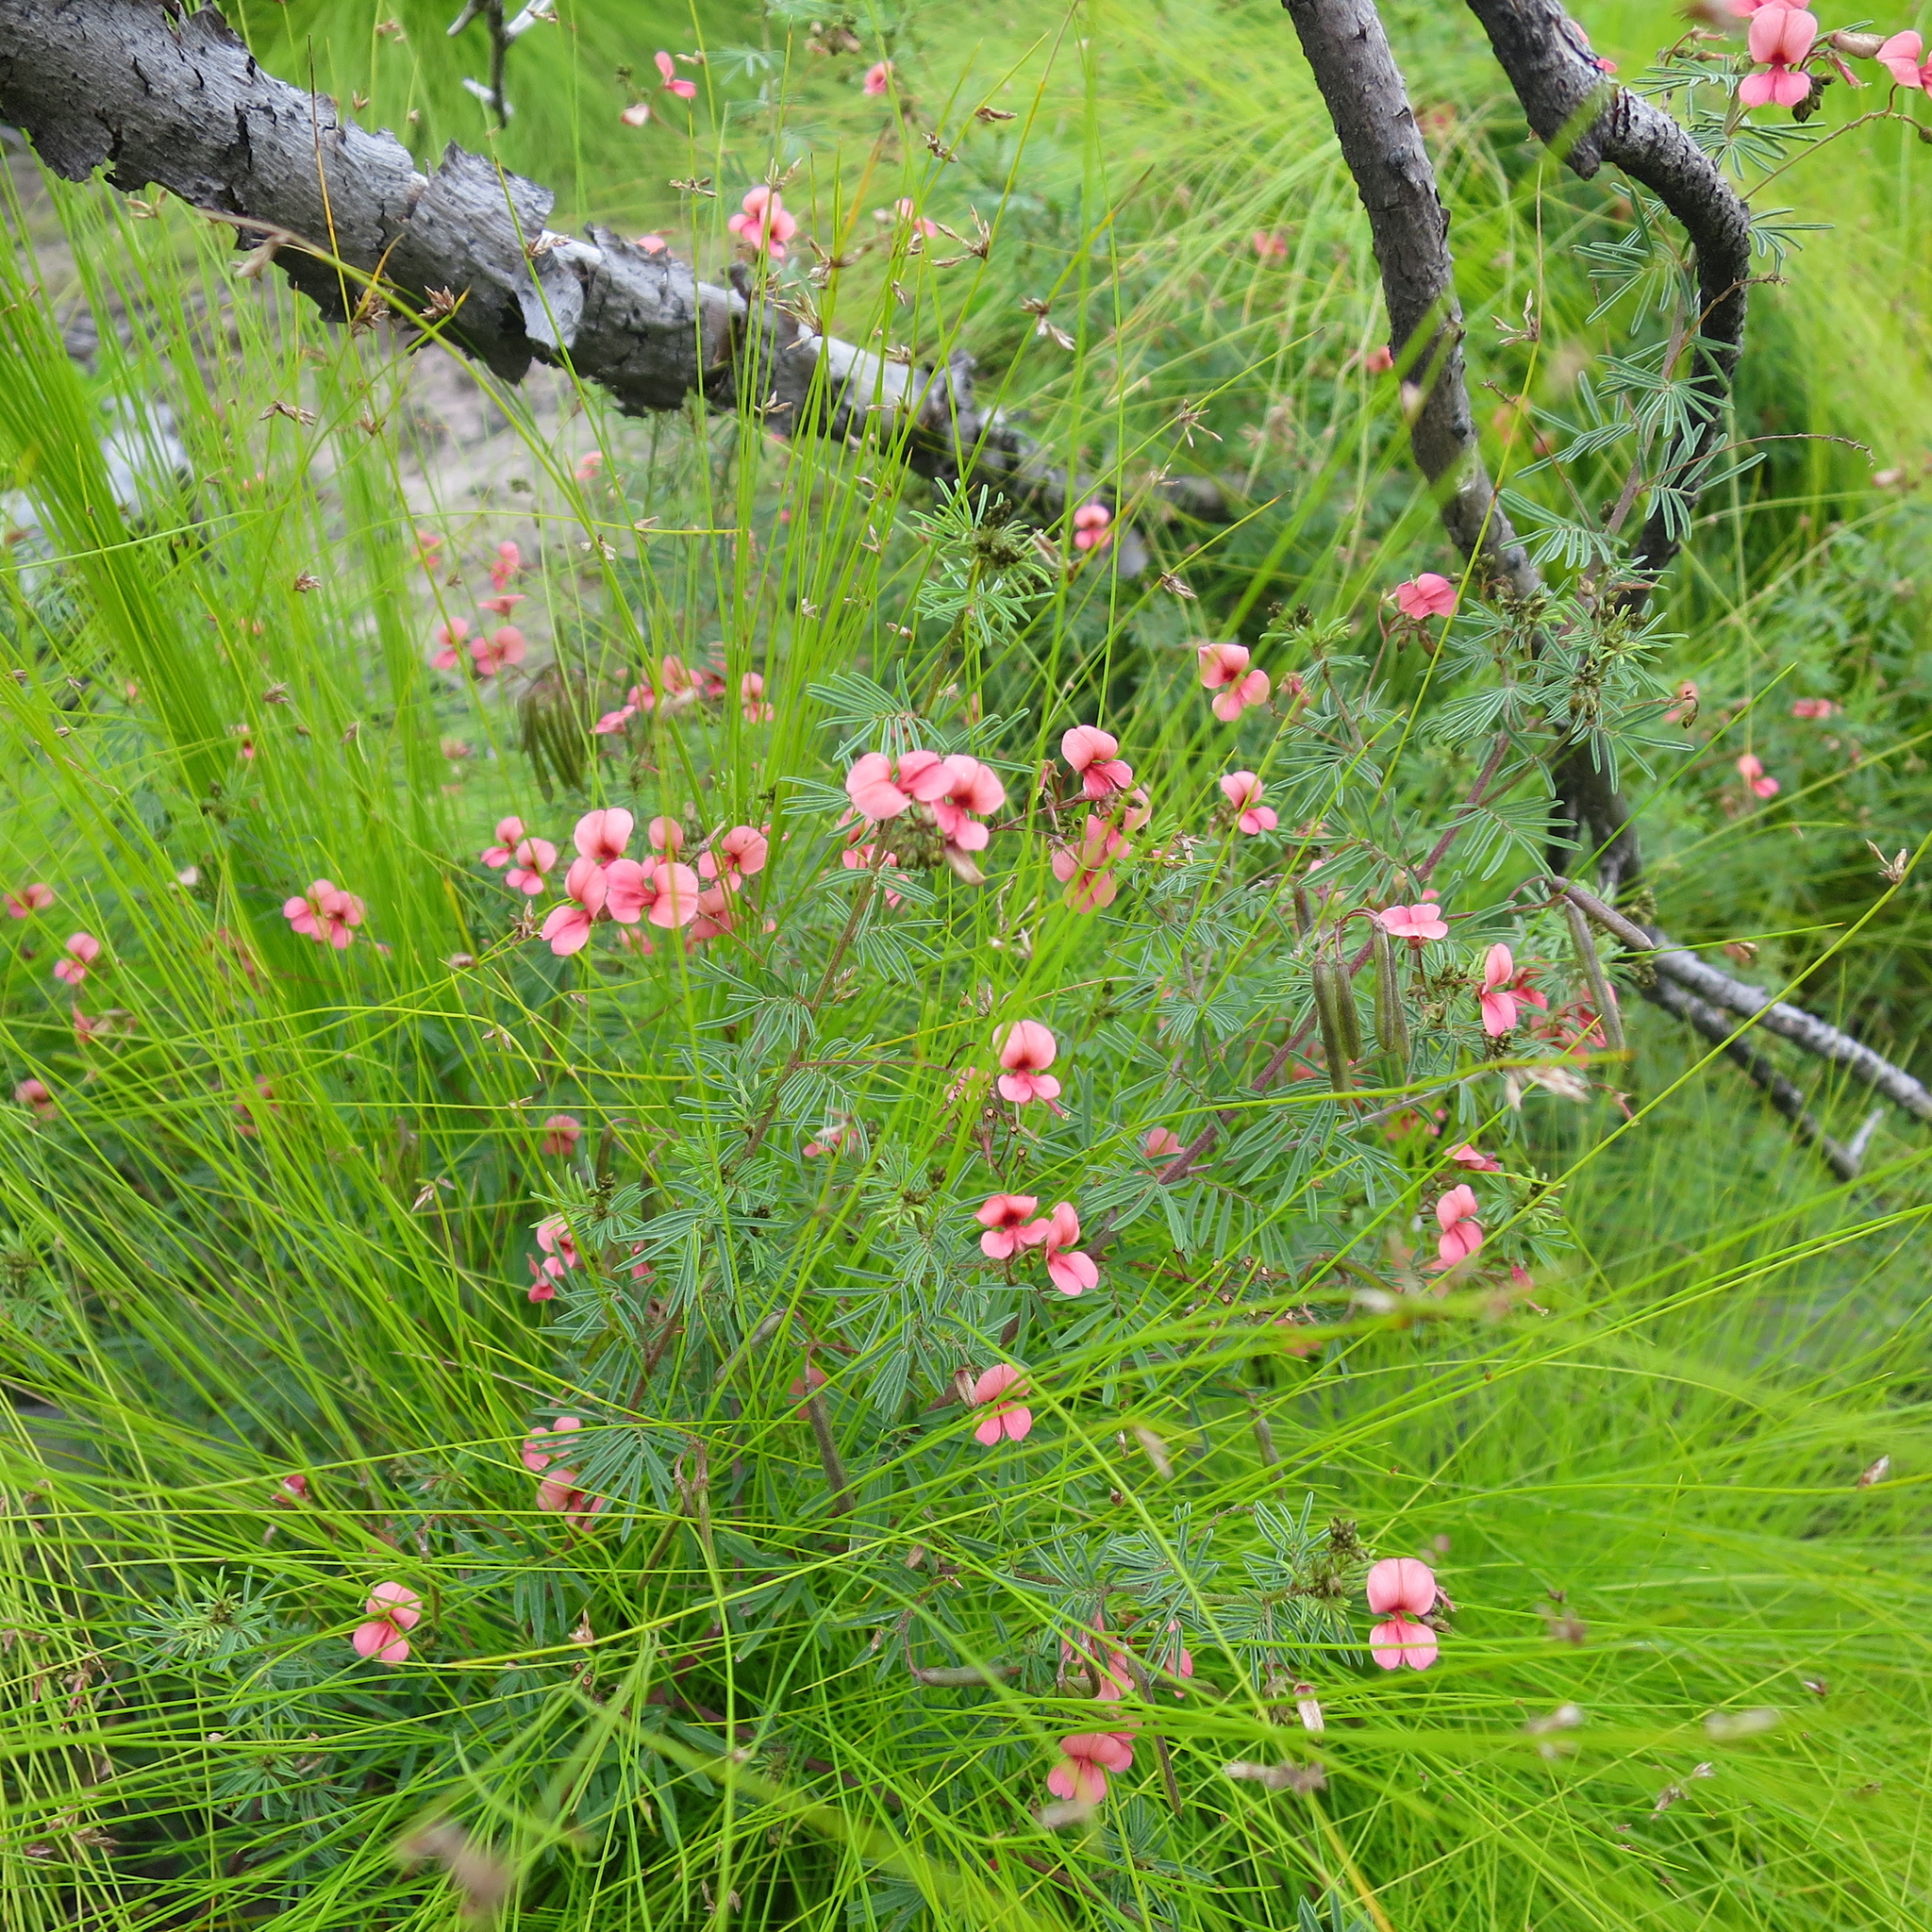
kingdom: Plantae
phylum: Tracheophyta
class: Magnoliopsida
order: Fabales
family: Fabaceae
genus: Indigofera
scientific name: Indigofera verrucosa
